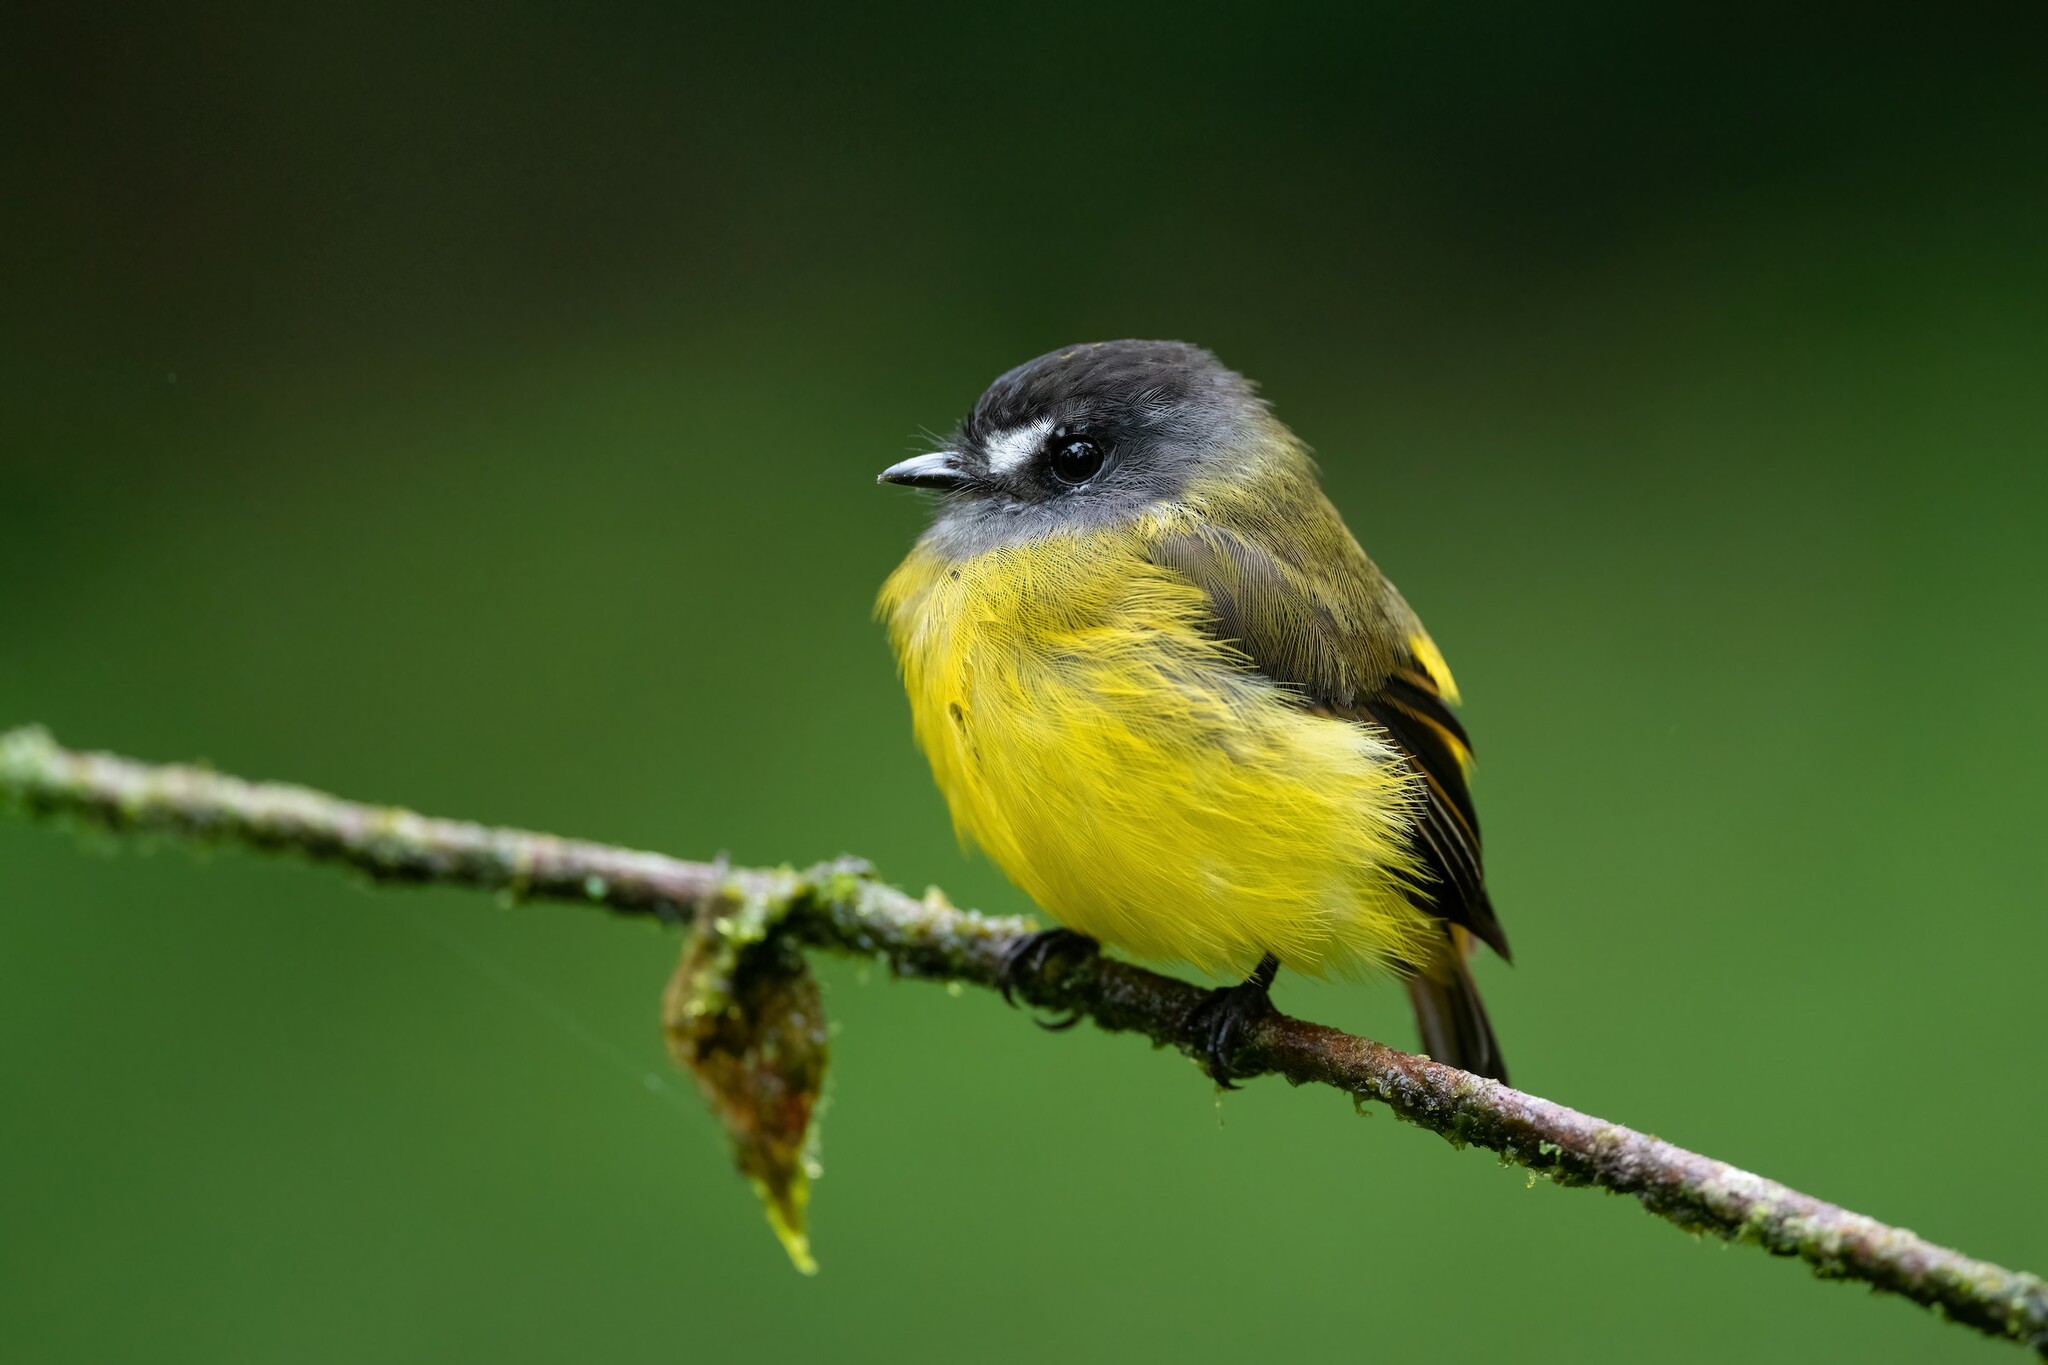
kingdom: Animalia
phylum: Chordata
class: Aves
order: Passeriformes
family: Tyrannidae
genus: Myiotriccus
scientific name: Myiotriccus ornatus
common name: Ornate flycatcher
